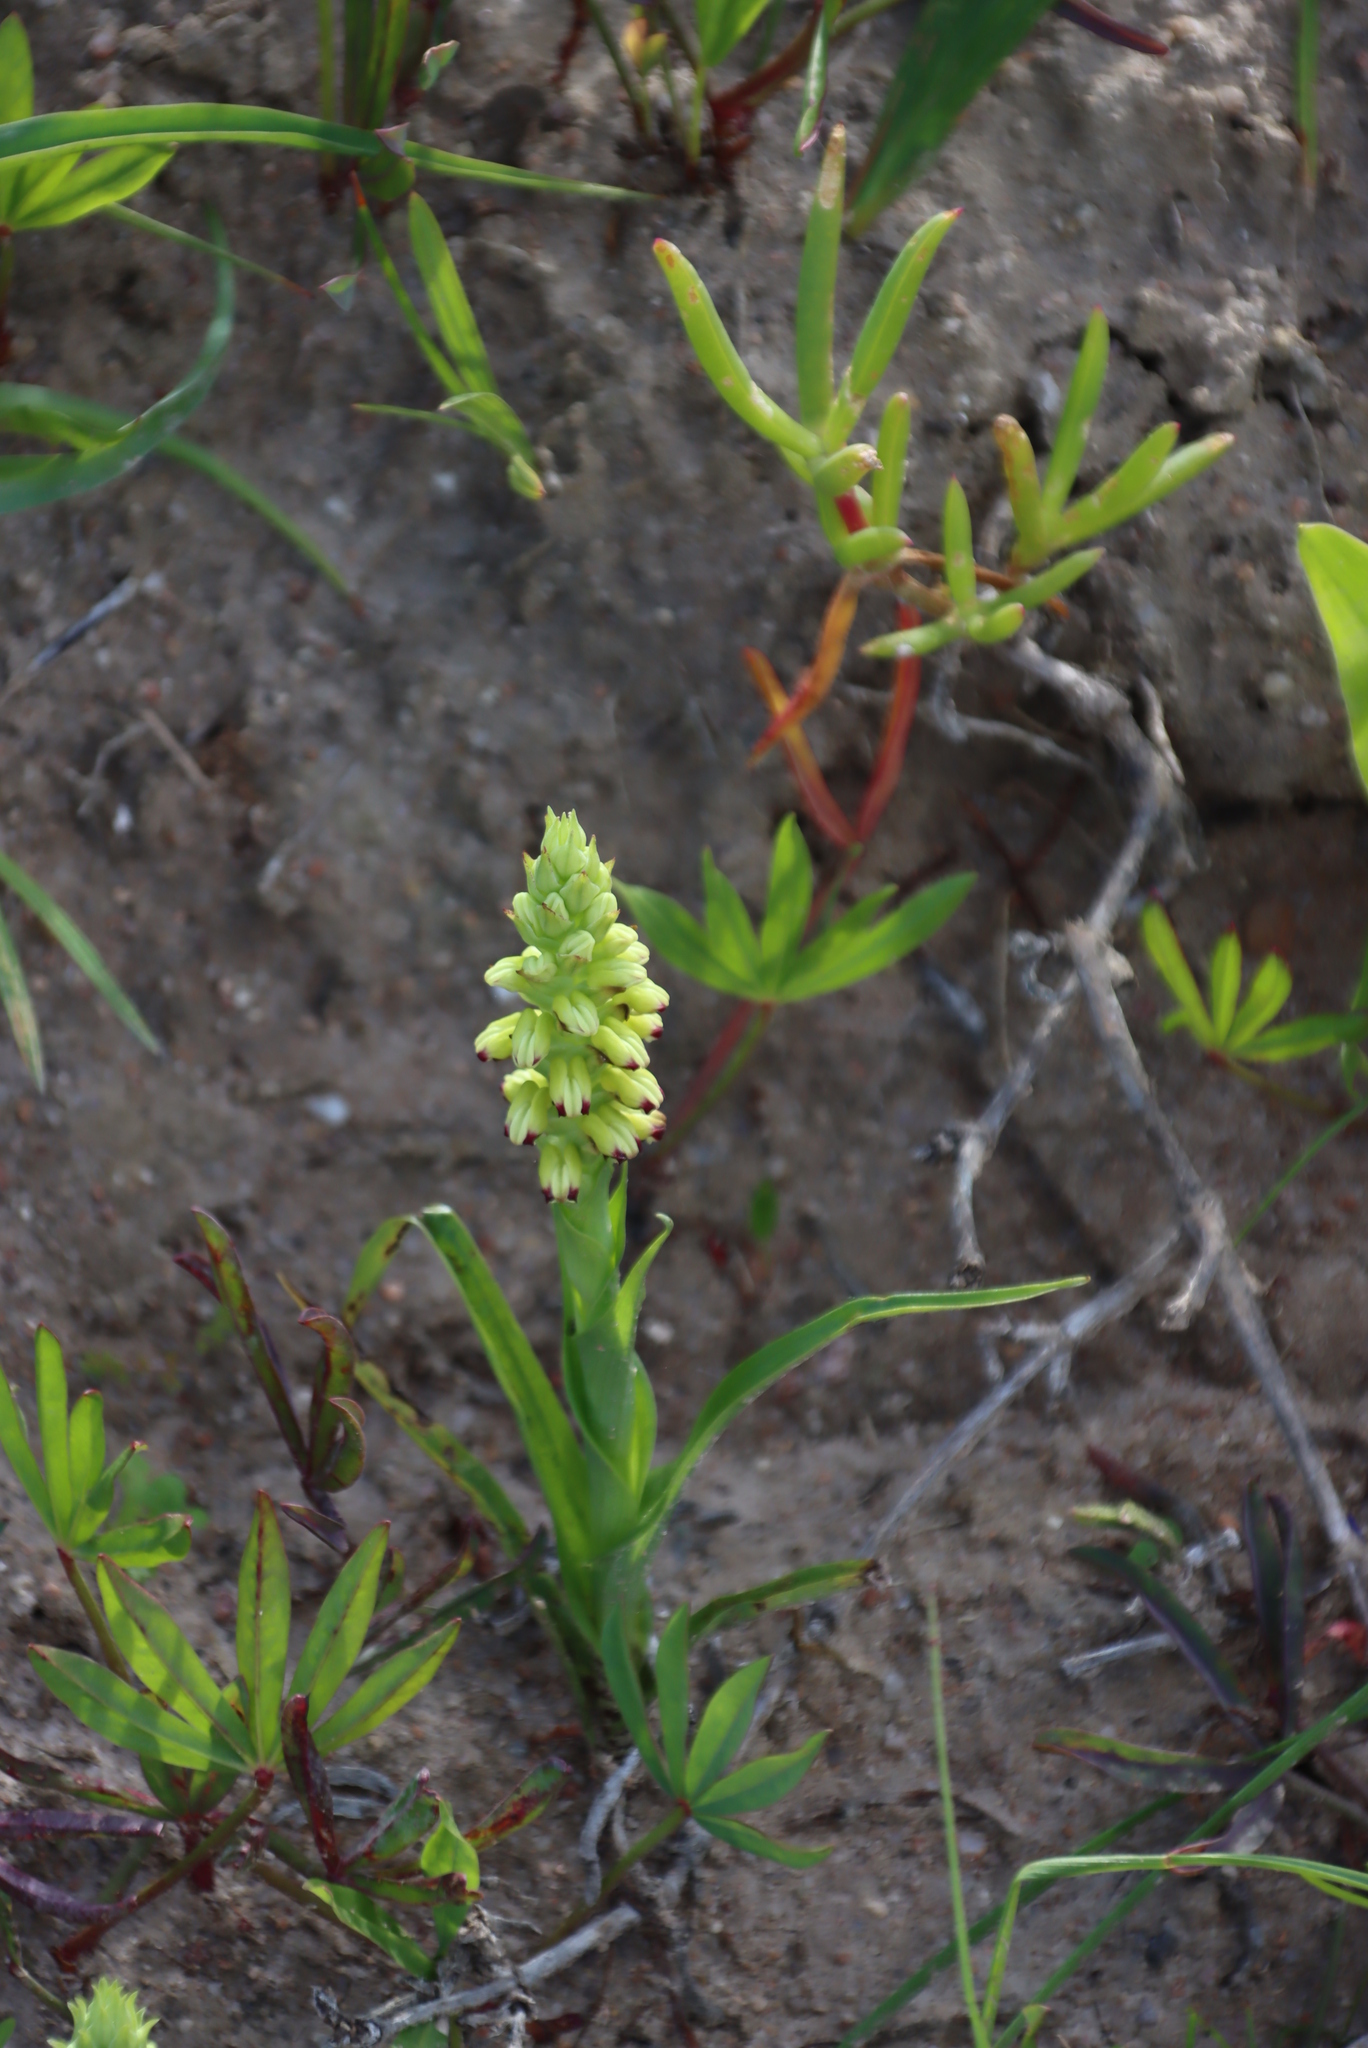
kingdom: Plantae
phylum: Tracheophyta
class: Liliopsida
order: Asparagales
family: Orchidaceae
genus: Corycium
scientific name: Corycium orobanchoides
